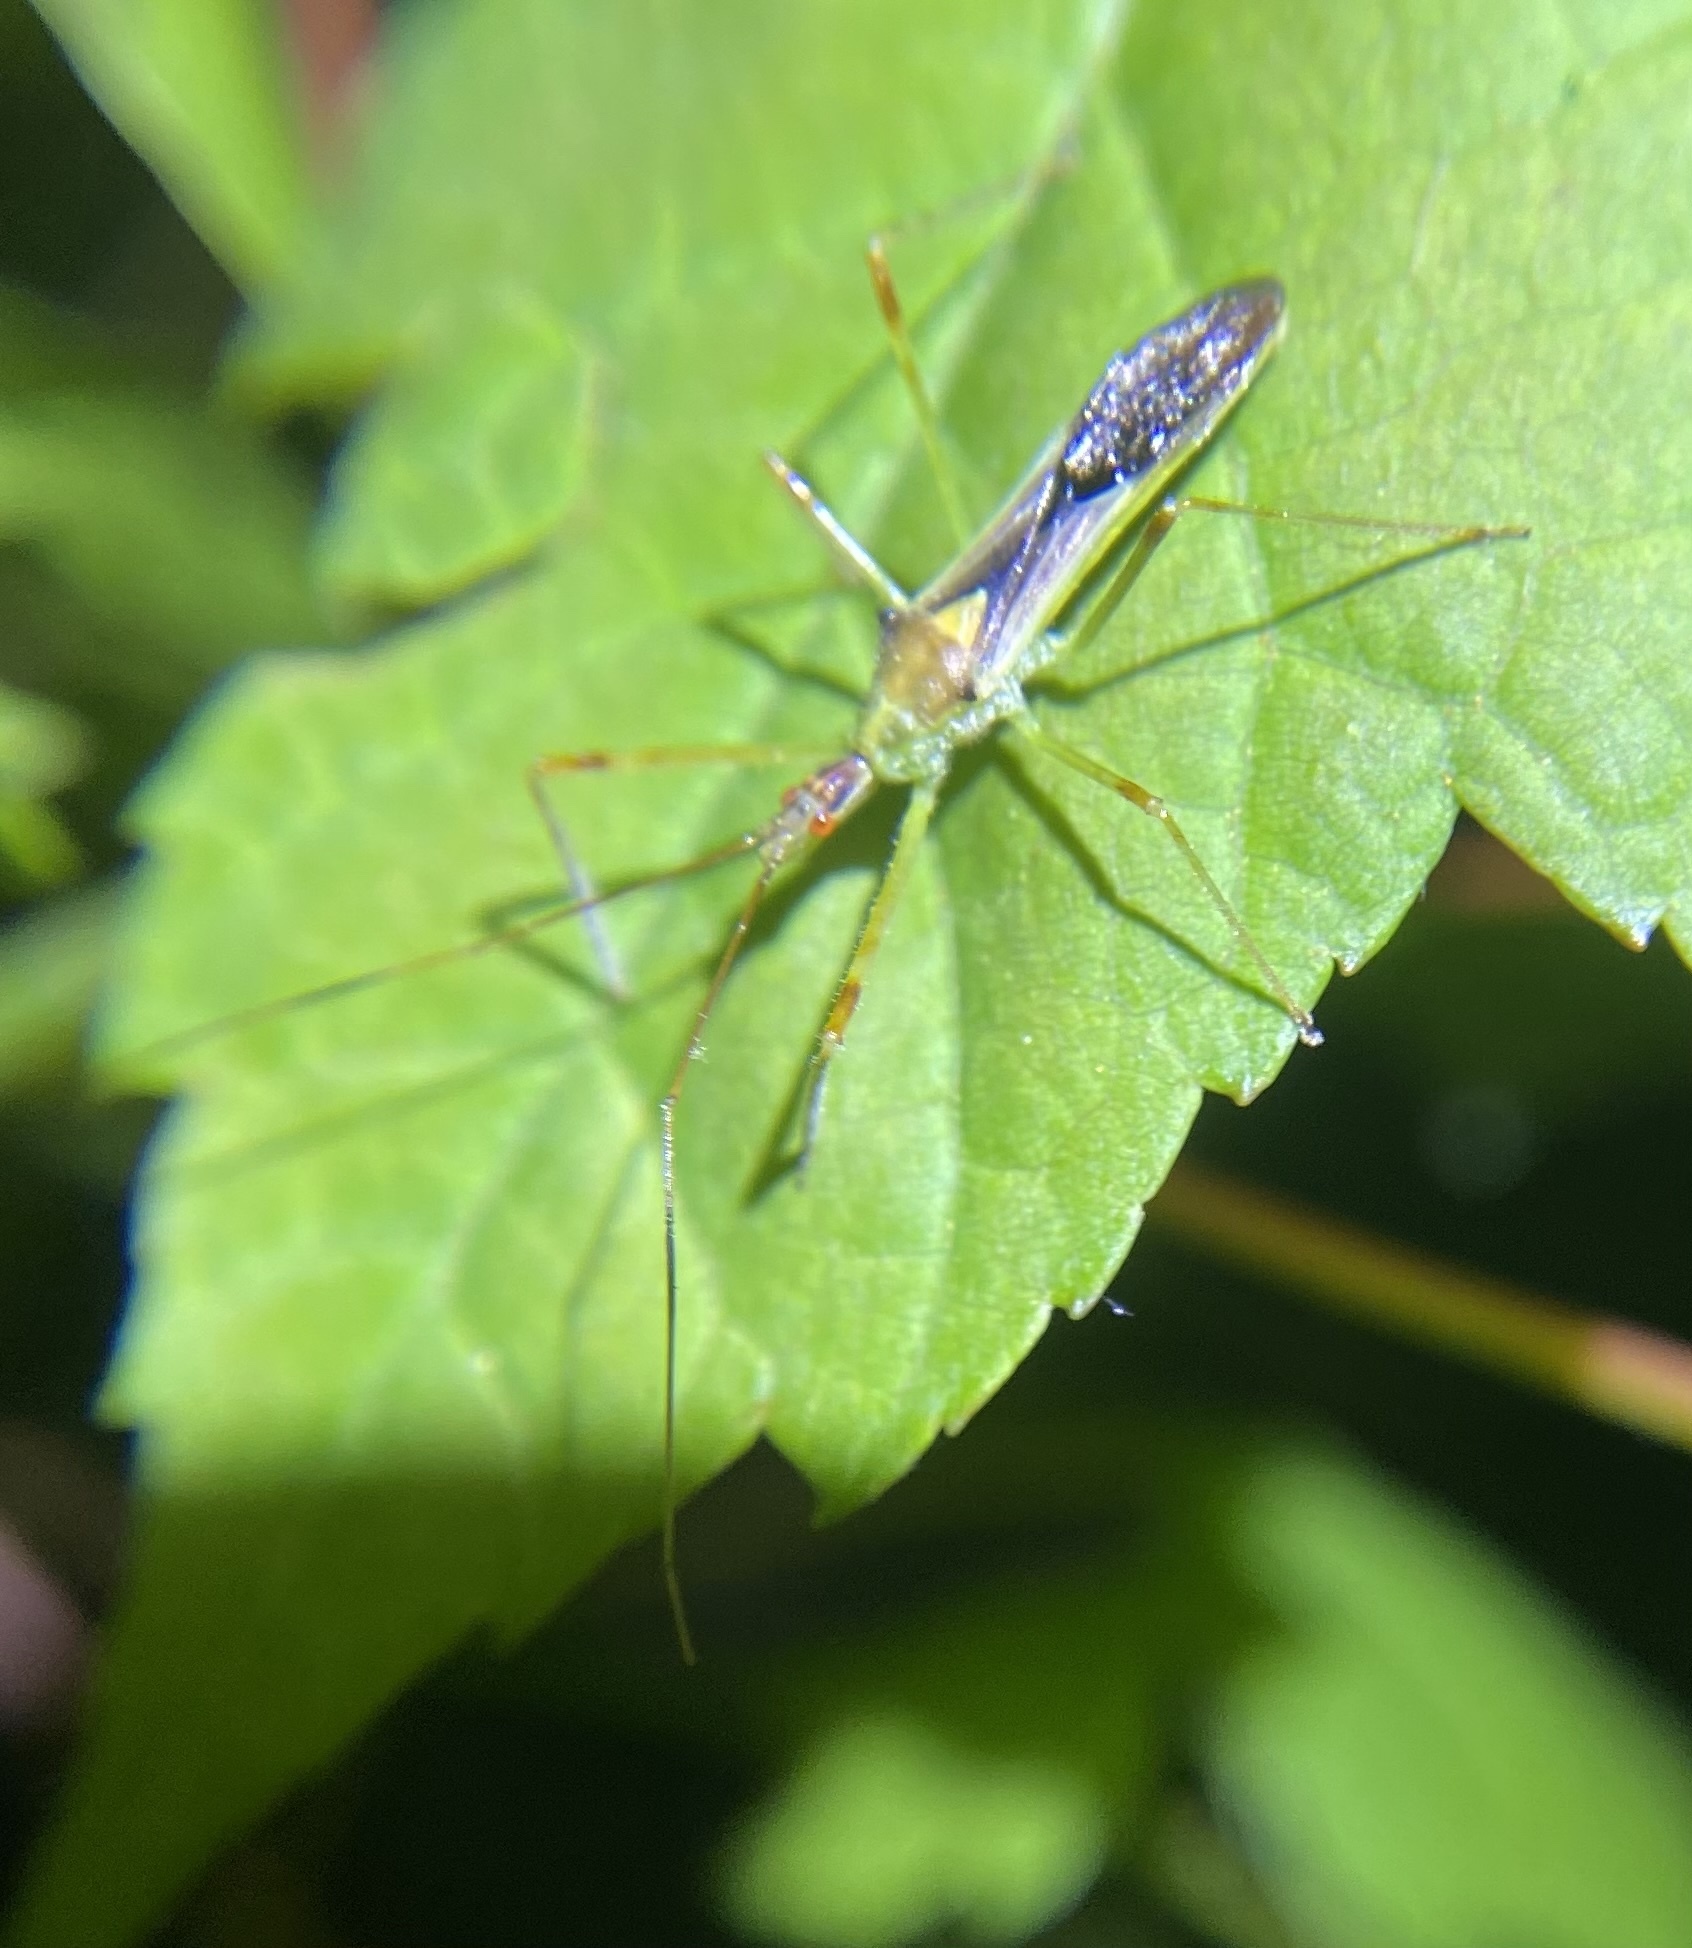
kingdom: Animalia
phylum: Arthropoda
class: Insecta
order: Hemiptera
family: Reduviidae
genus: Zelus
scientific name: Zelus luridus
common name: Pale green assassin bug
